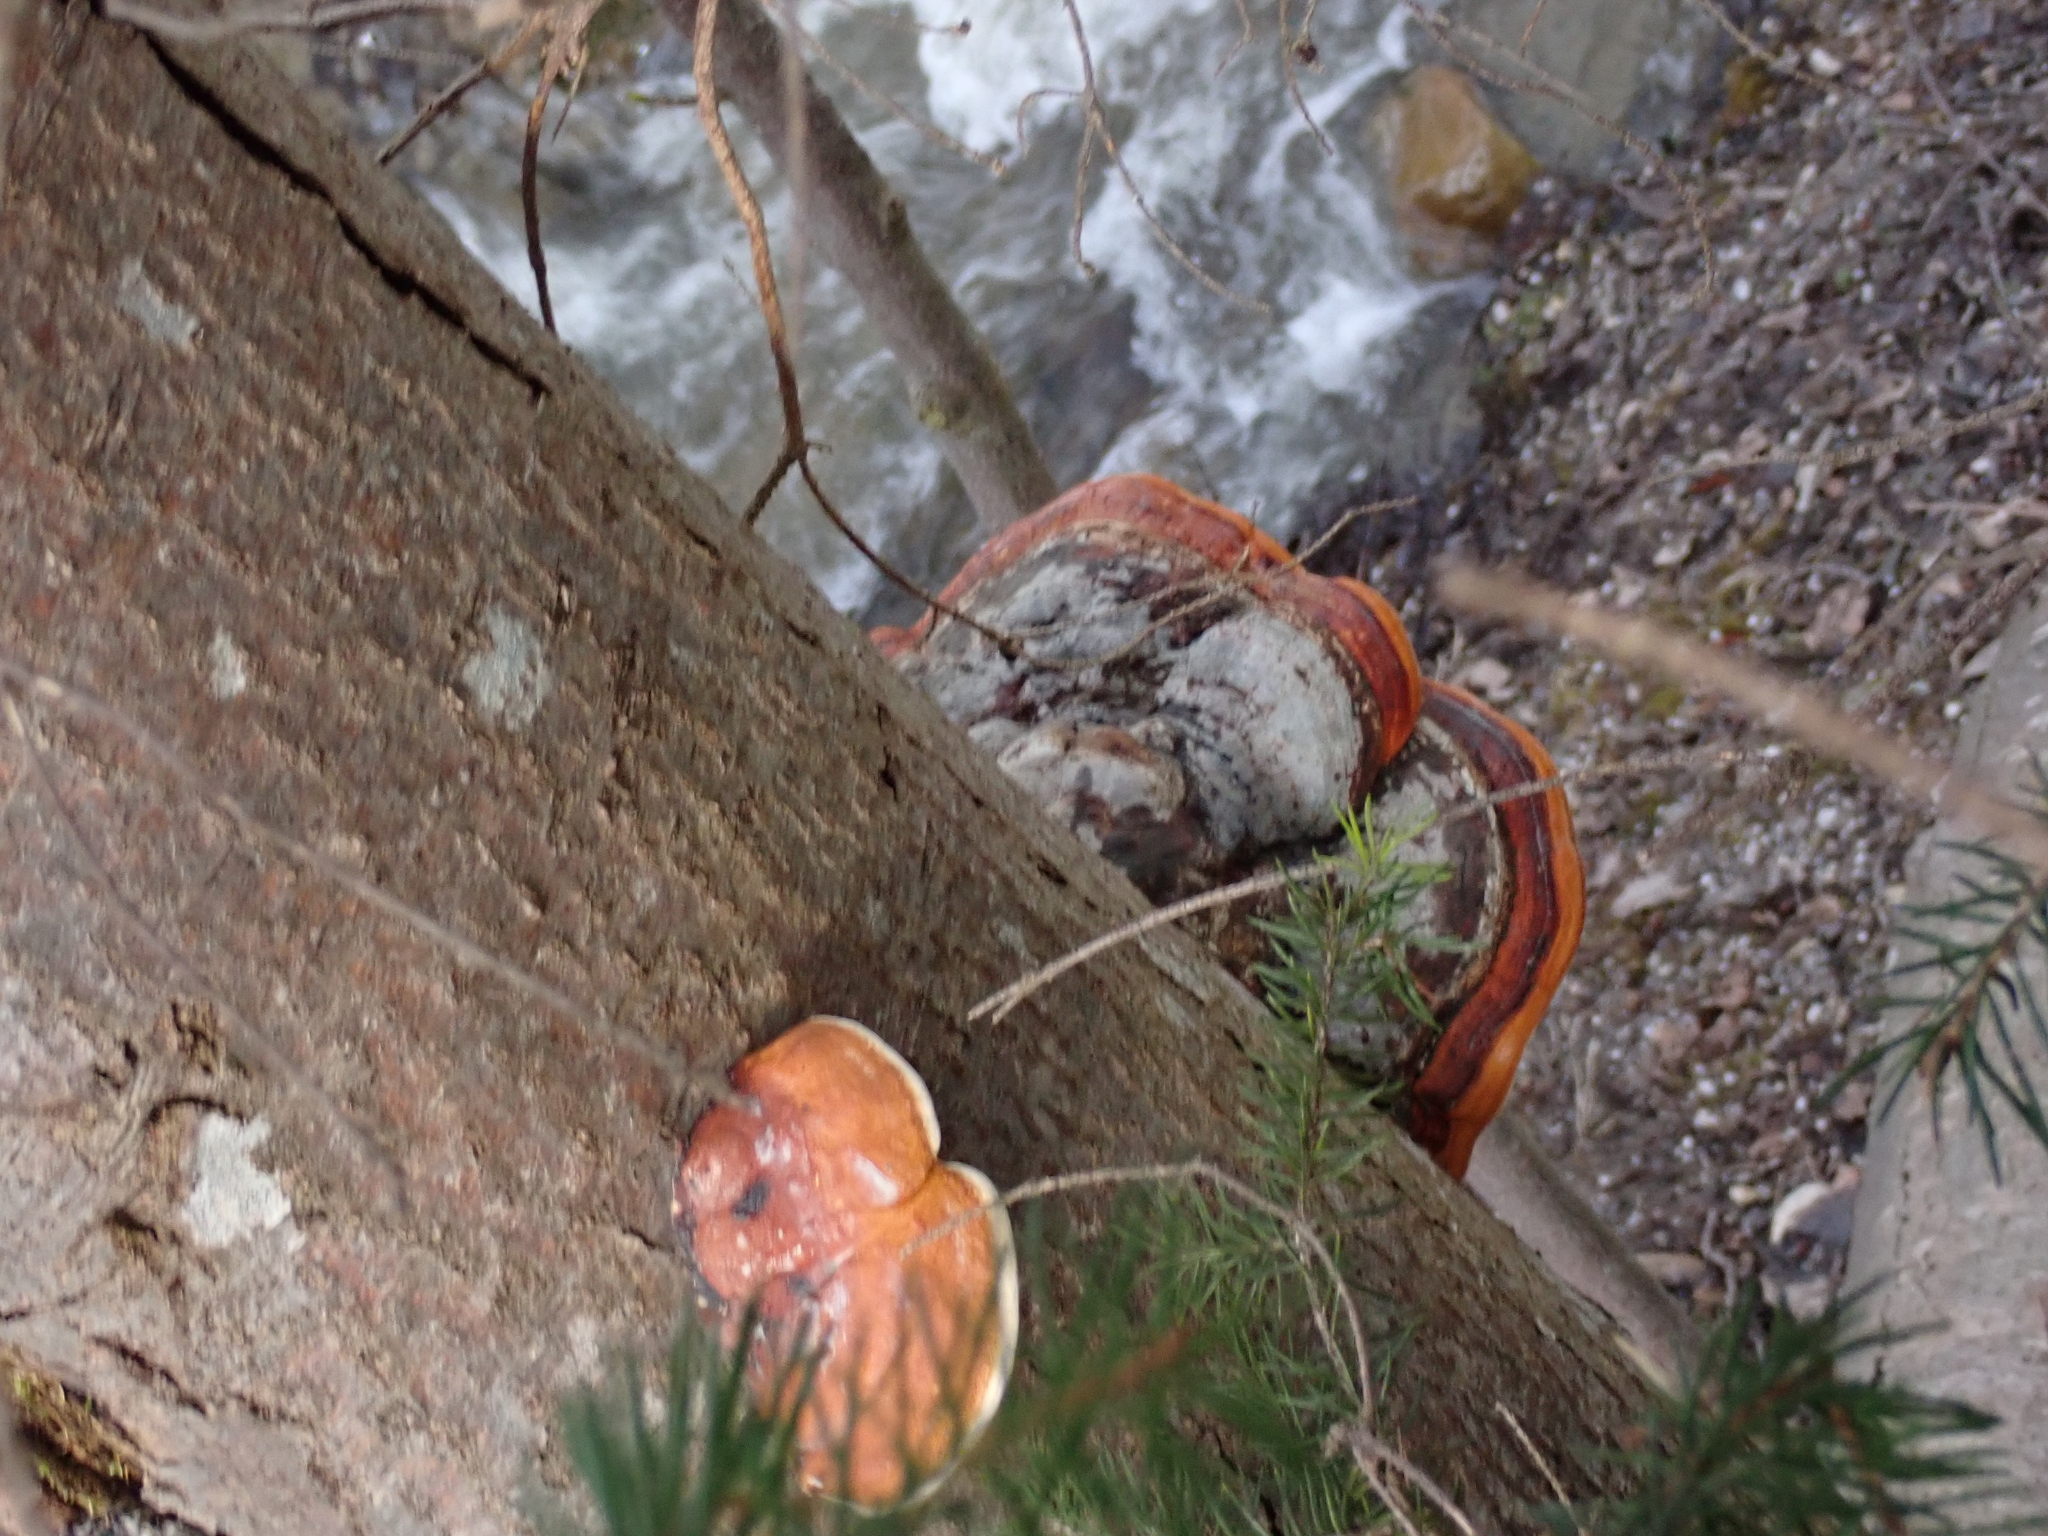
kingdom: Fungi
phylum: Basidiomycota
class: Agaricomycetes
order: Polyporales
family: Fomitopsidaceae
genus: Fomitopsis
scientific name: Fomitopsis pinicola
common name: Red-belted bracket
